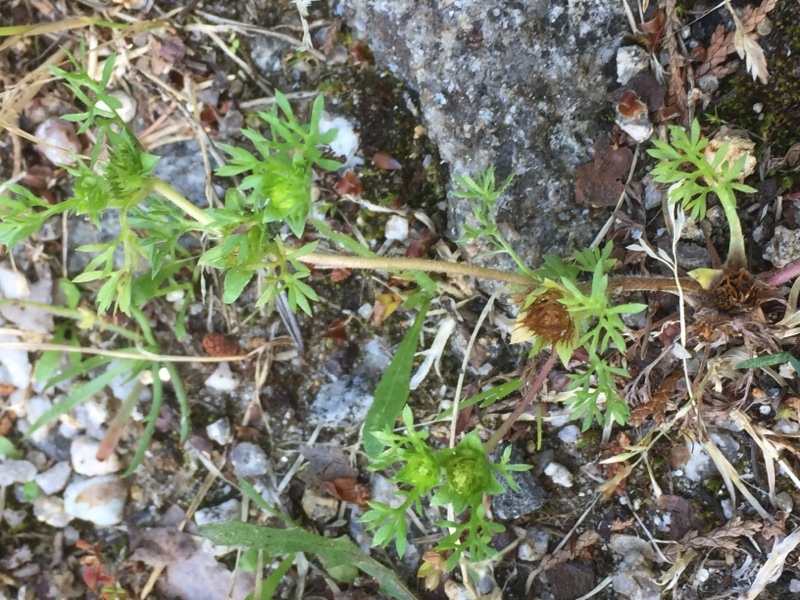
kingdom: Plantae
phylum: Tracheophyta
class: Magnoliopsida
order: Asterales
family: Asteraceae
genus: Soliva
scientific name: Soliva sessilis
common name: Field burrweed
